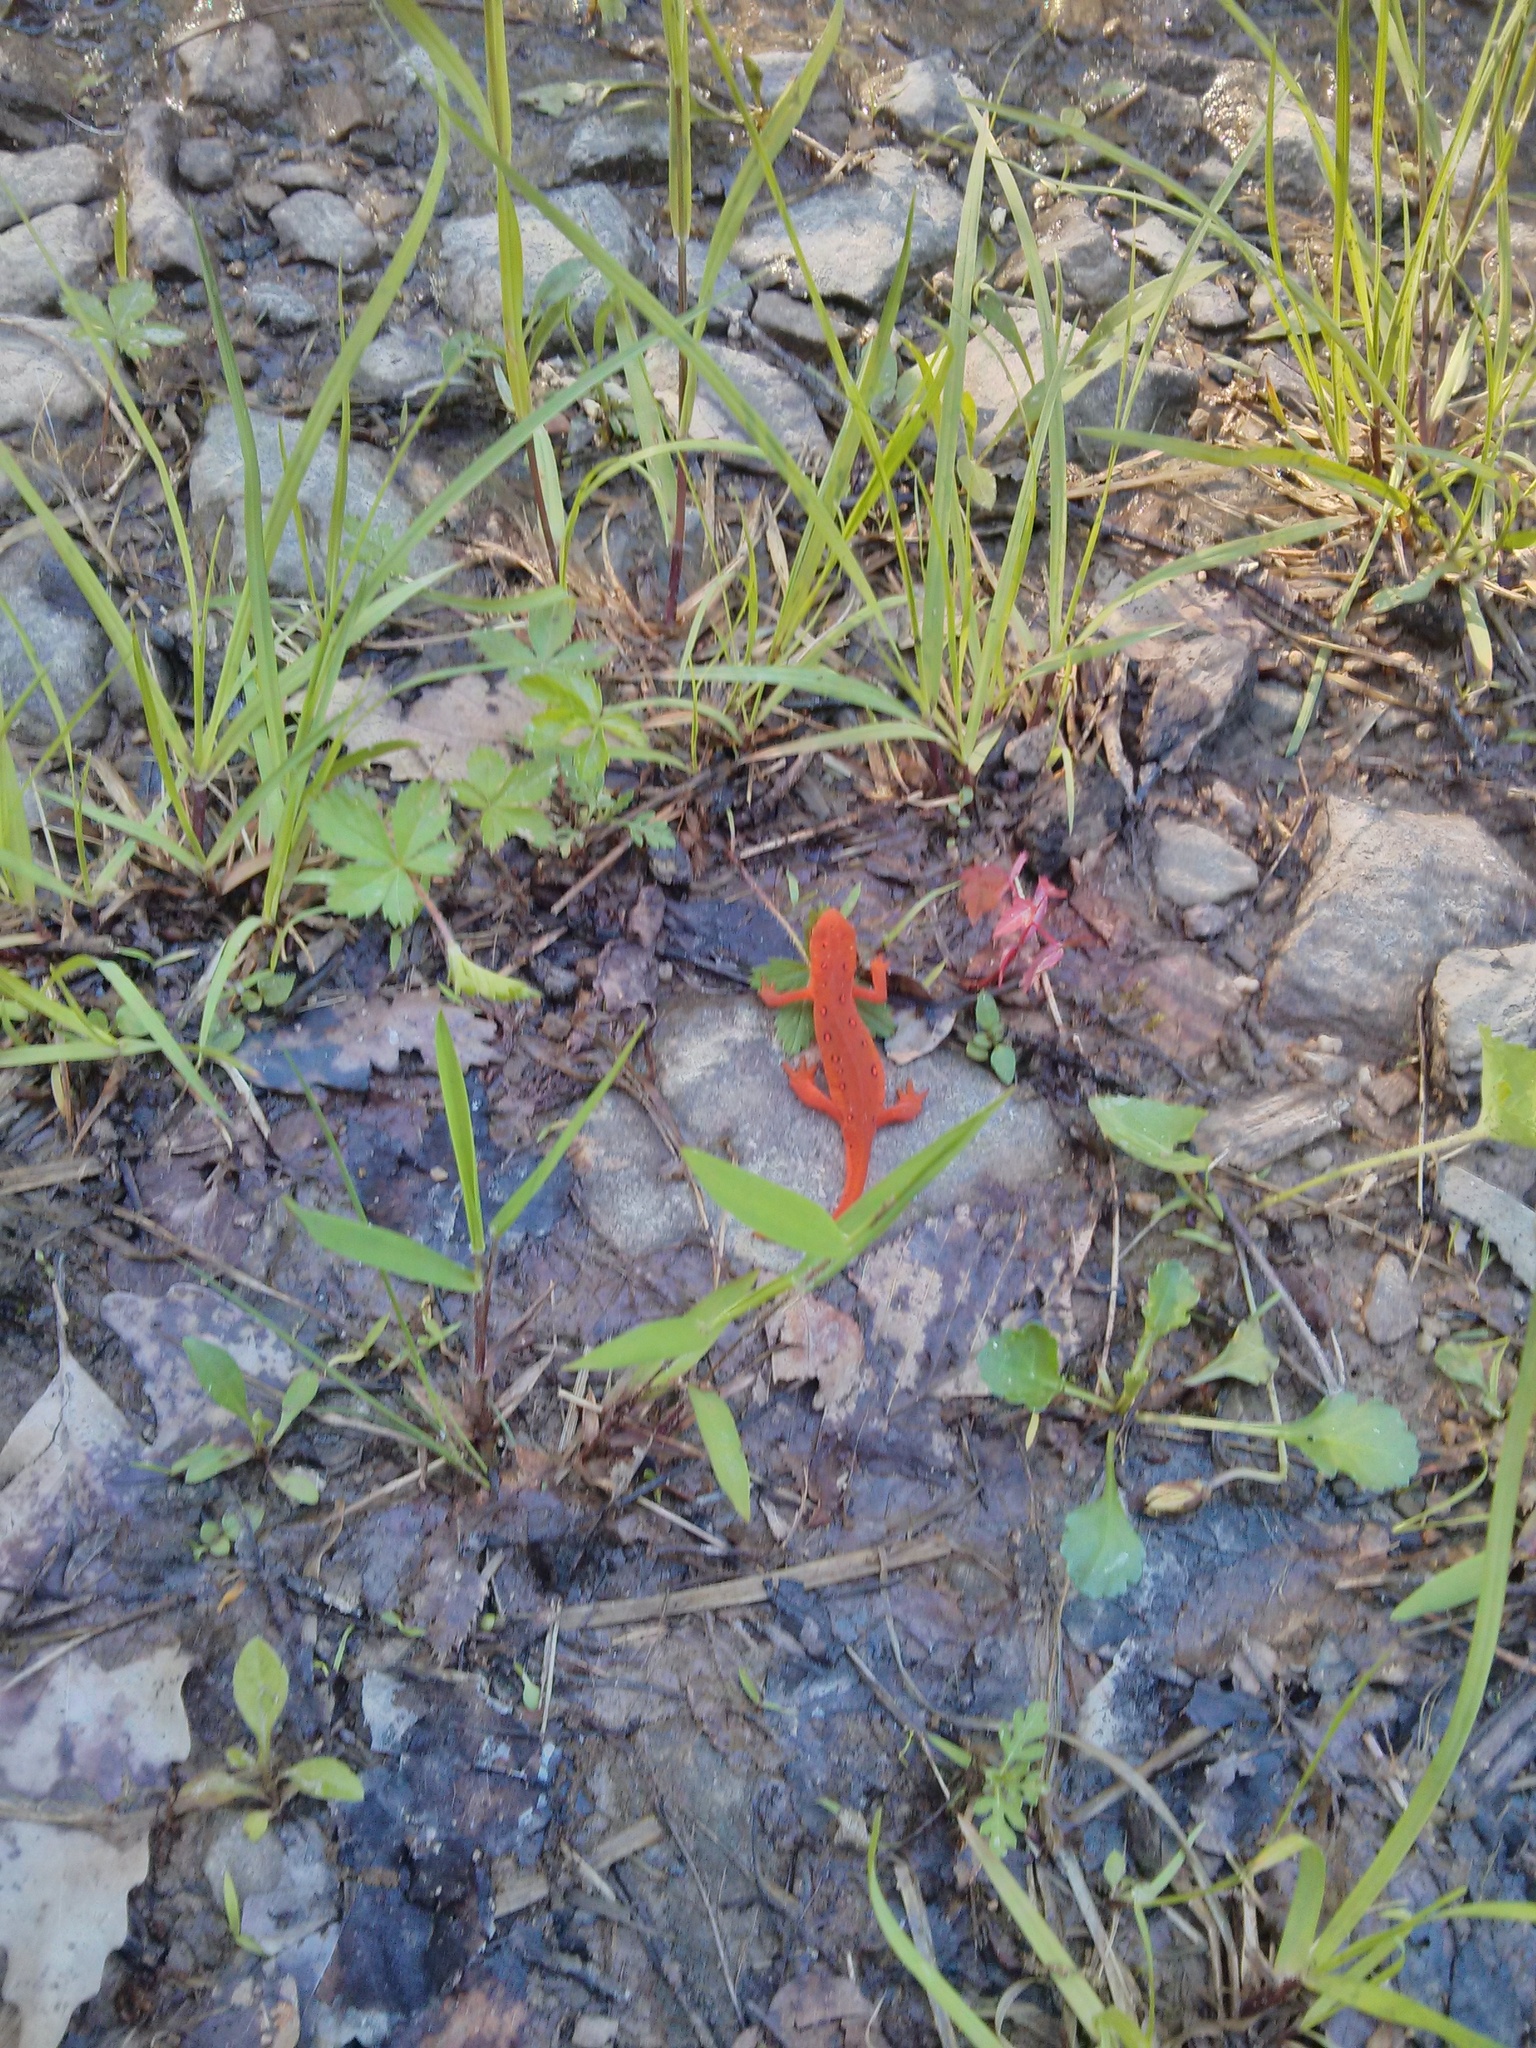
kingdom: Animalia
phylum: Chordata
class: Amphibia
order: Caudata
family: Salamandridae
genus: Notophthalmus
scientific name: Notophthalmus viridescens
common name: Eastern newt
